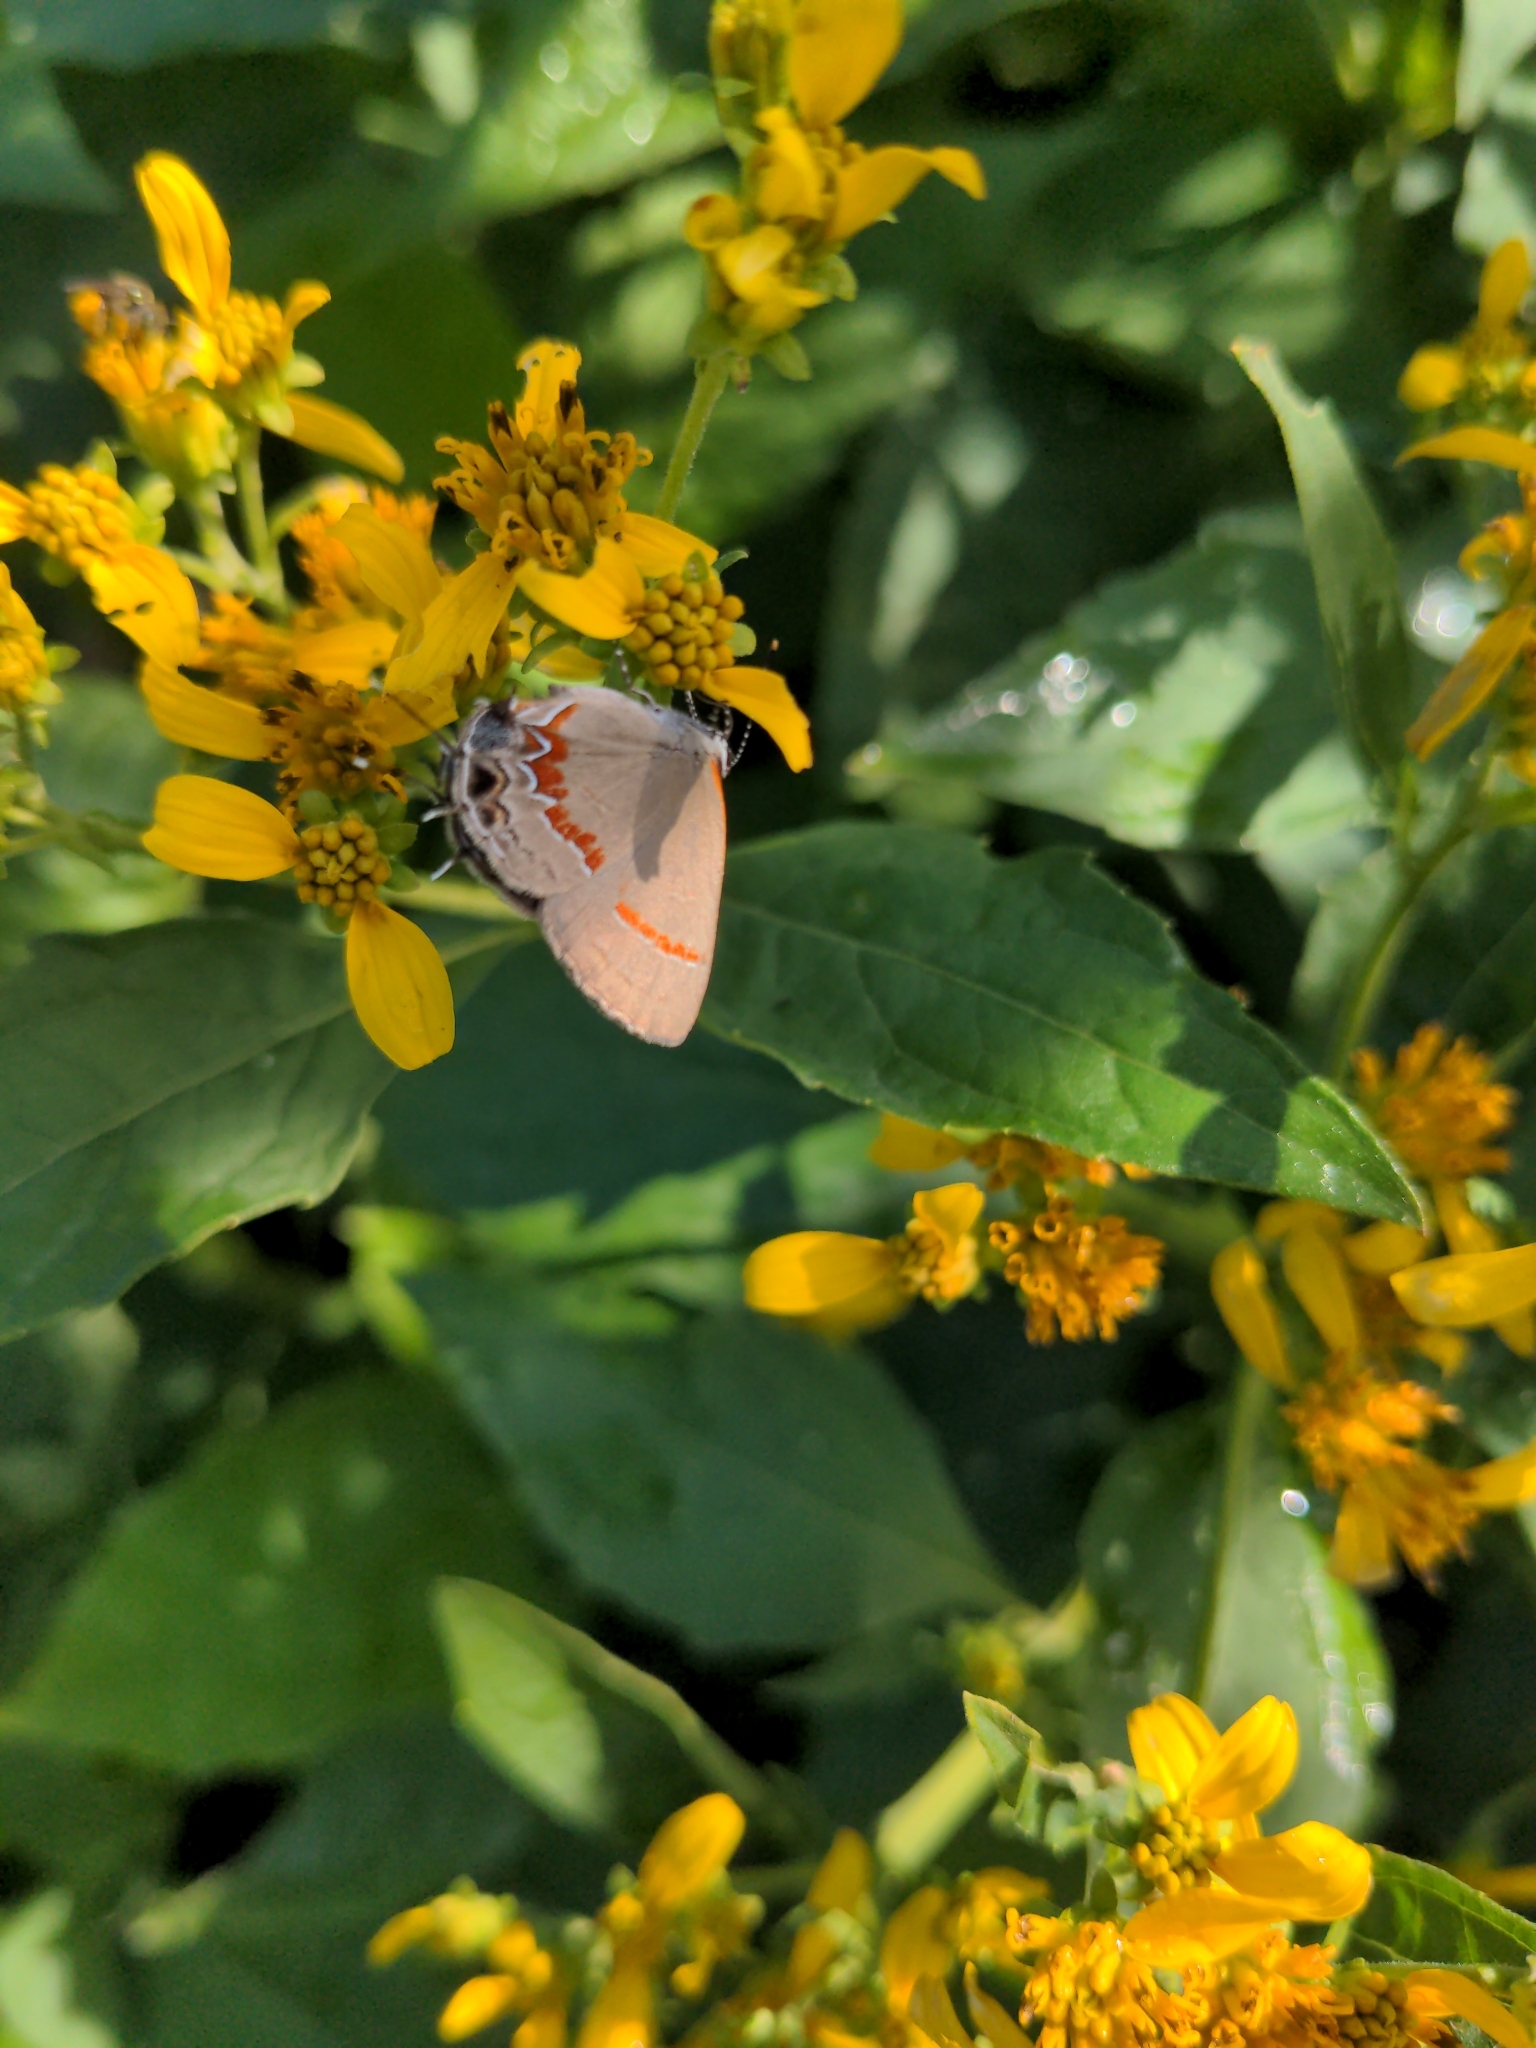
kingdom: Animalia
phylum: Arthropoda
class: Insecta
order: Lepidoptera
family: Lycaenidae
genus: Calycopis
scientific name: Calycopis cecrops
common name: Red-banded hairstreak
